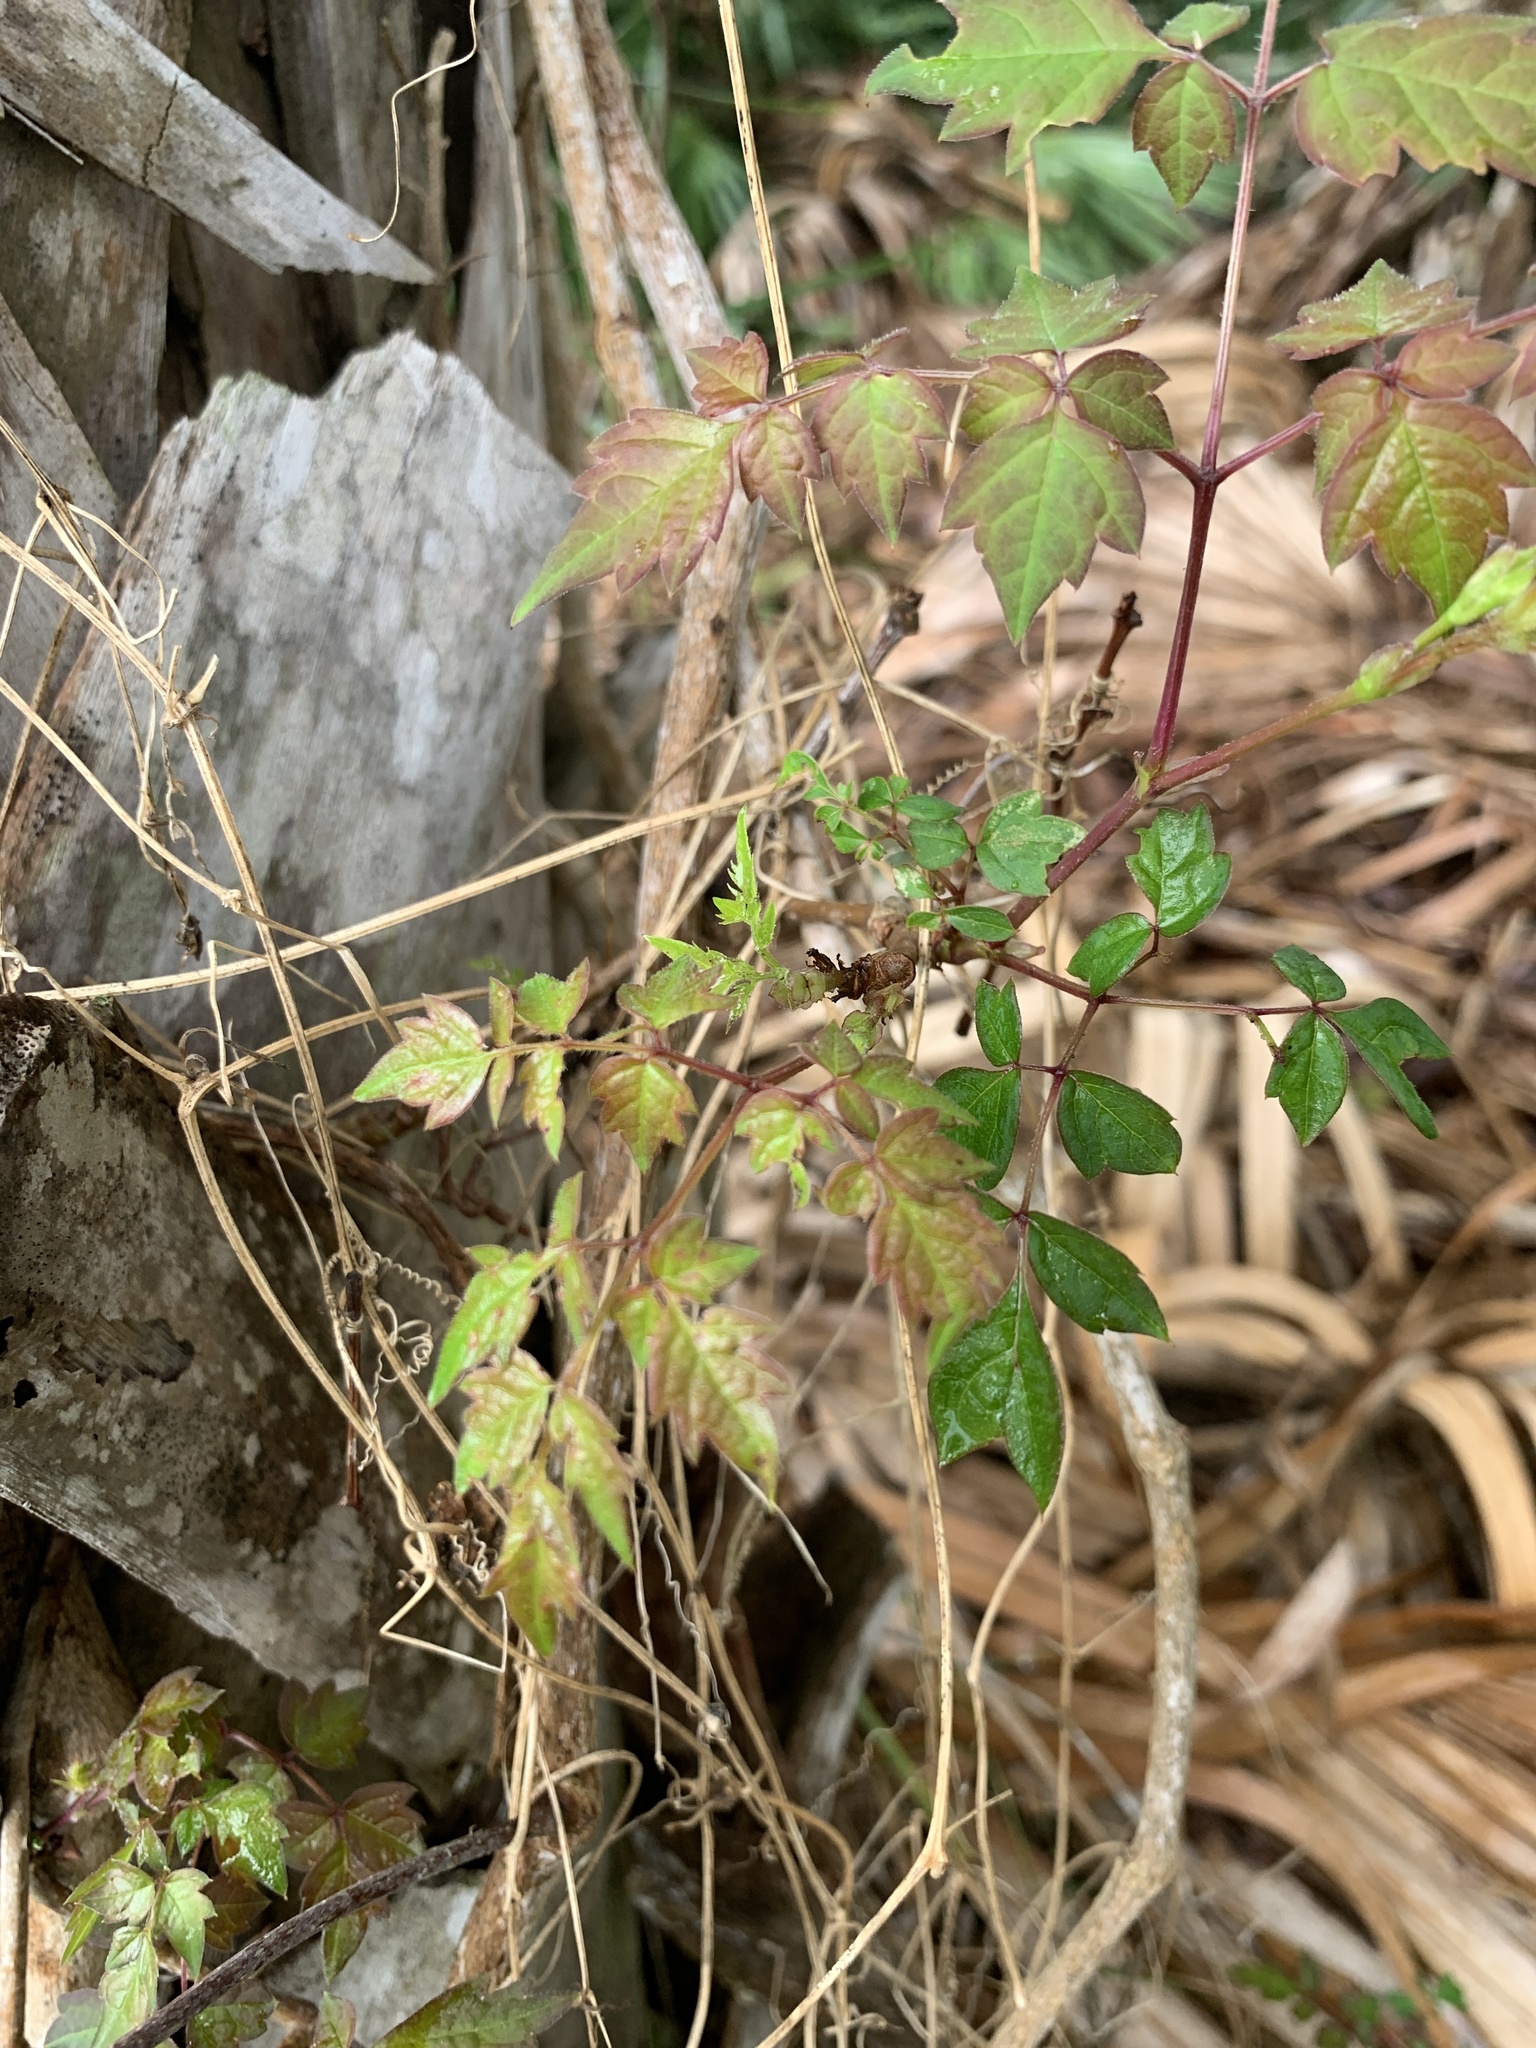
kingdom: Plantae
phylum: Tracheophyta
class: Magnoliopsida
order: Vitales
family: Vitaceae
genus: Nekemias
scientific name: Nekemias arborea
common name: Peppervine
